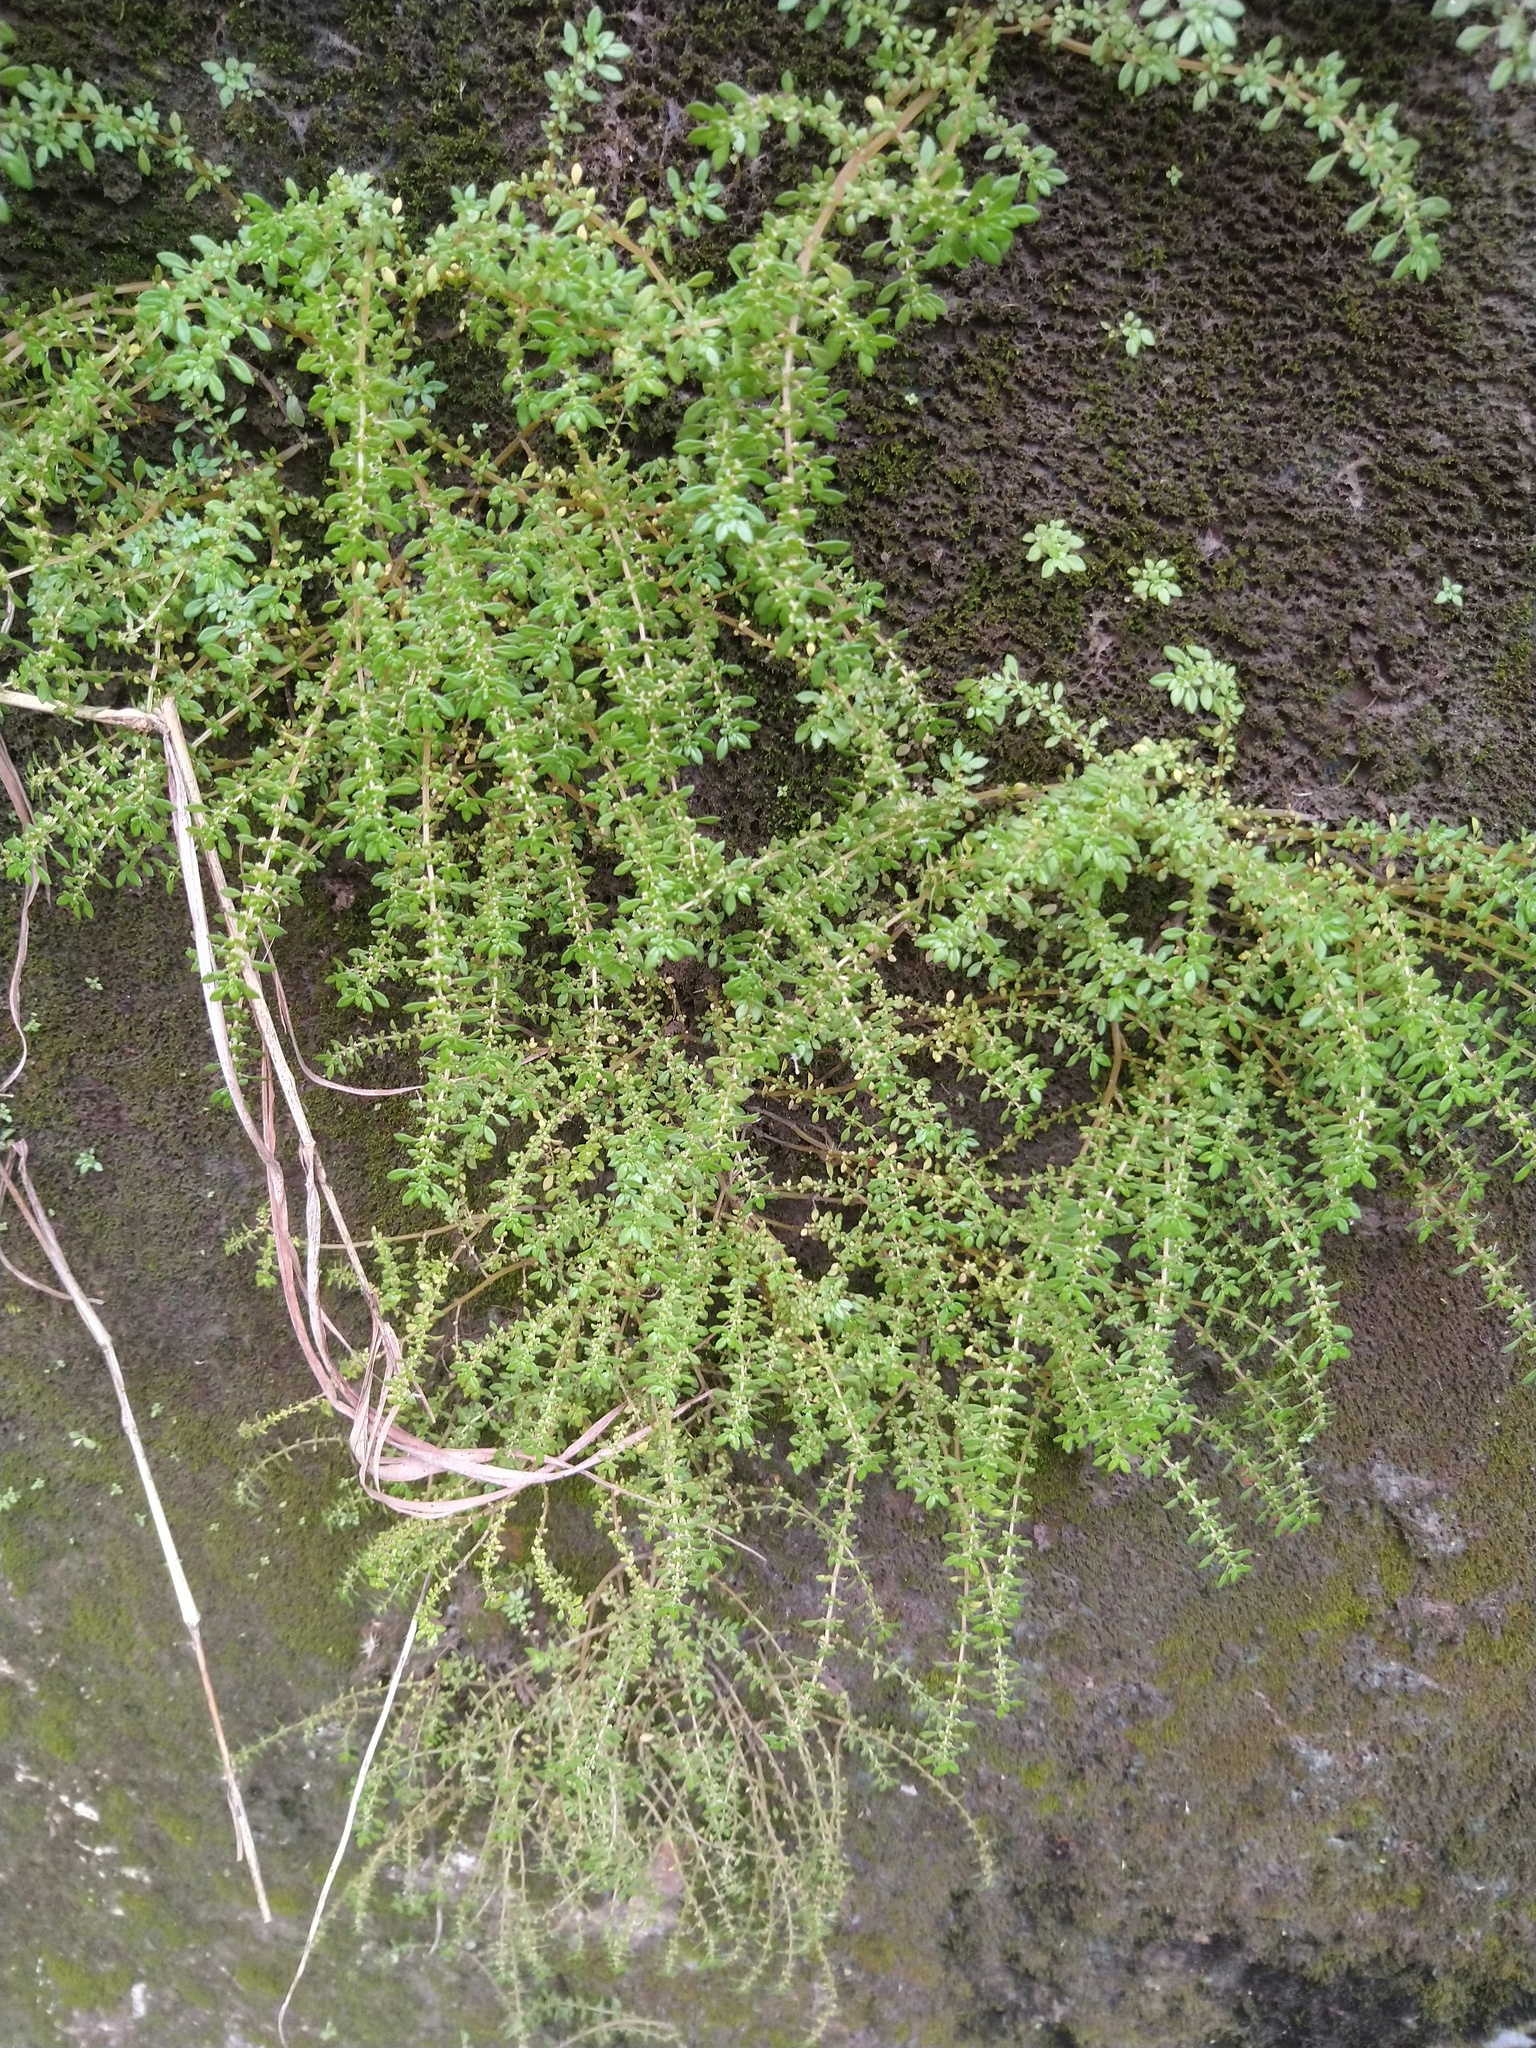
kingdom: Plantae
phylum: Tracheophyta
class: Magnoliopsida
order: Rosales
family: Urticaceae
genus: Pilea
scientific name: Pilea microphylla
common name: Artillery-plant
